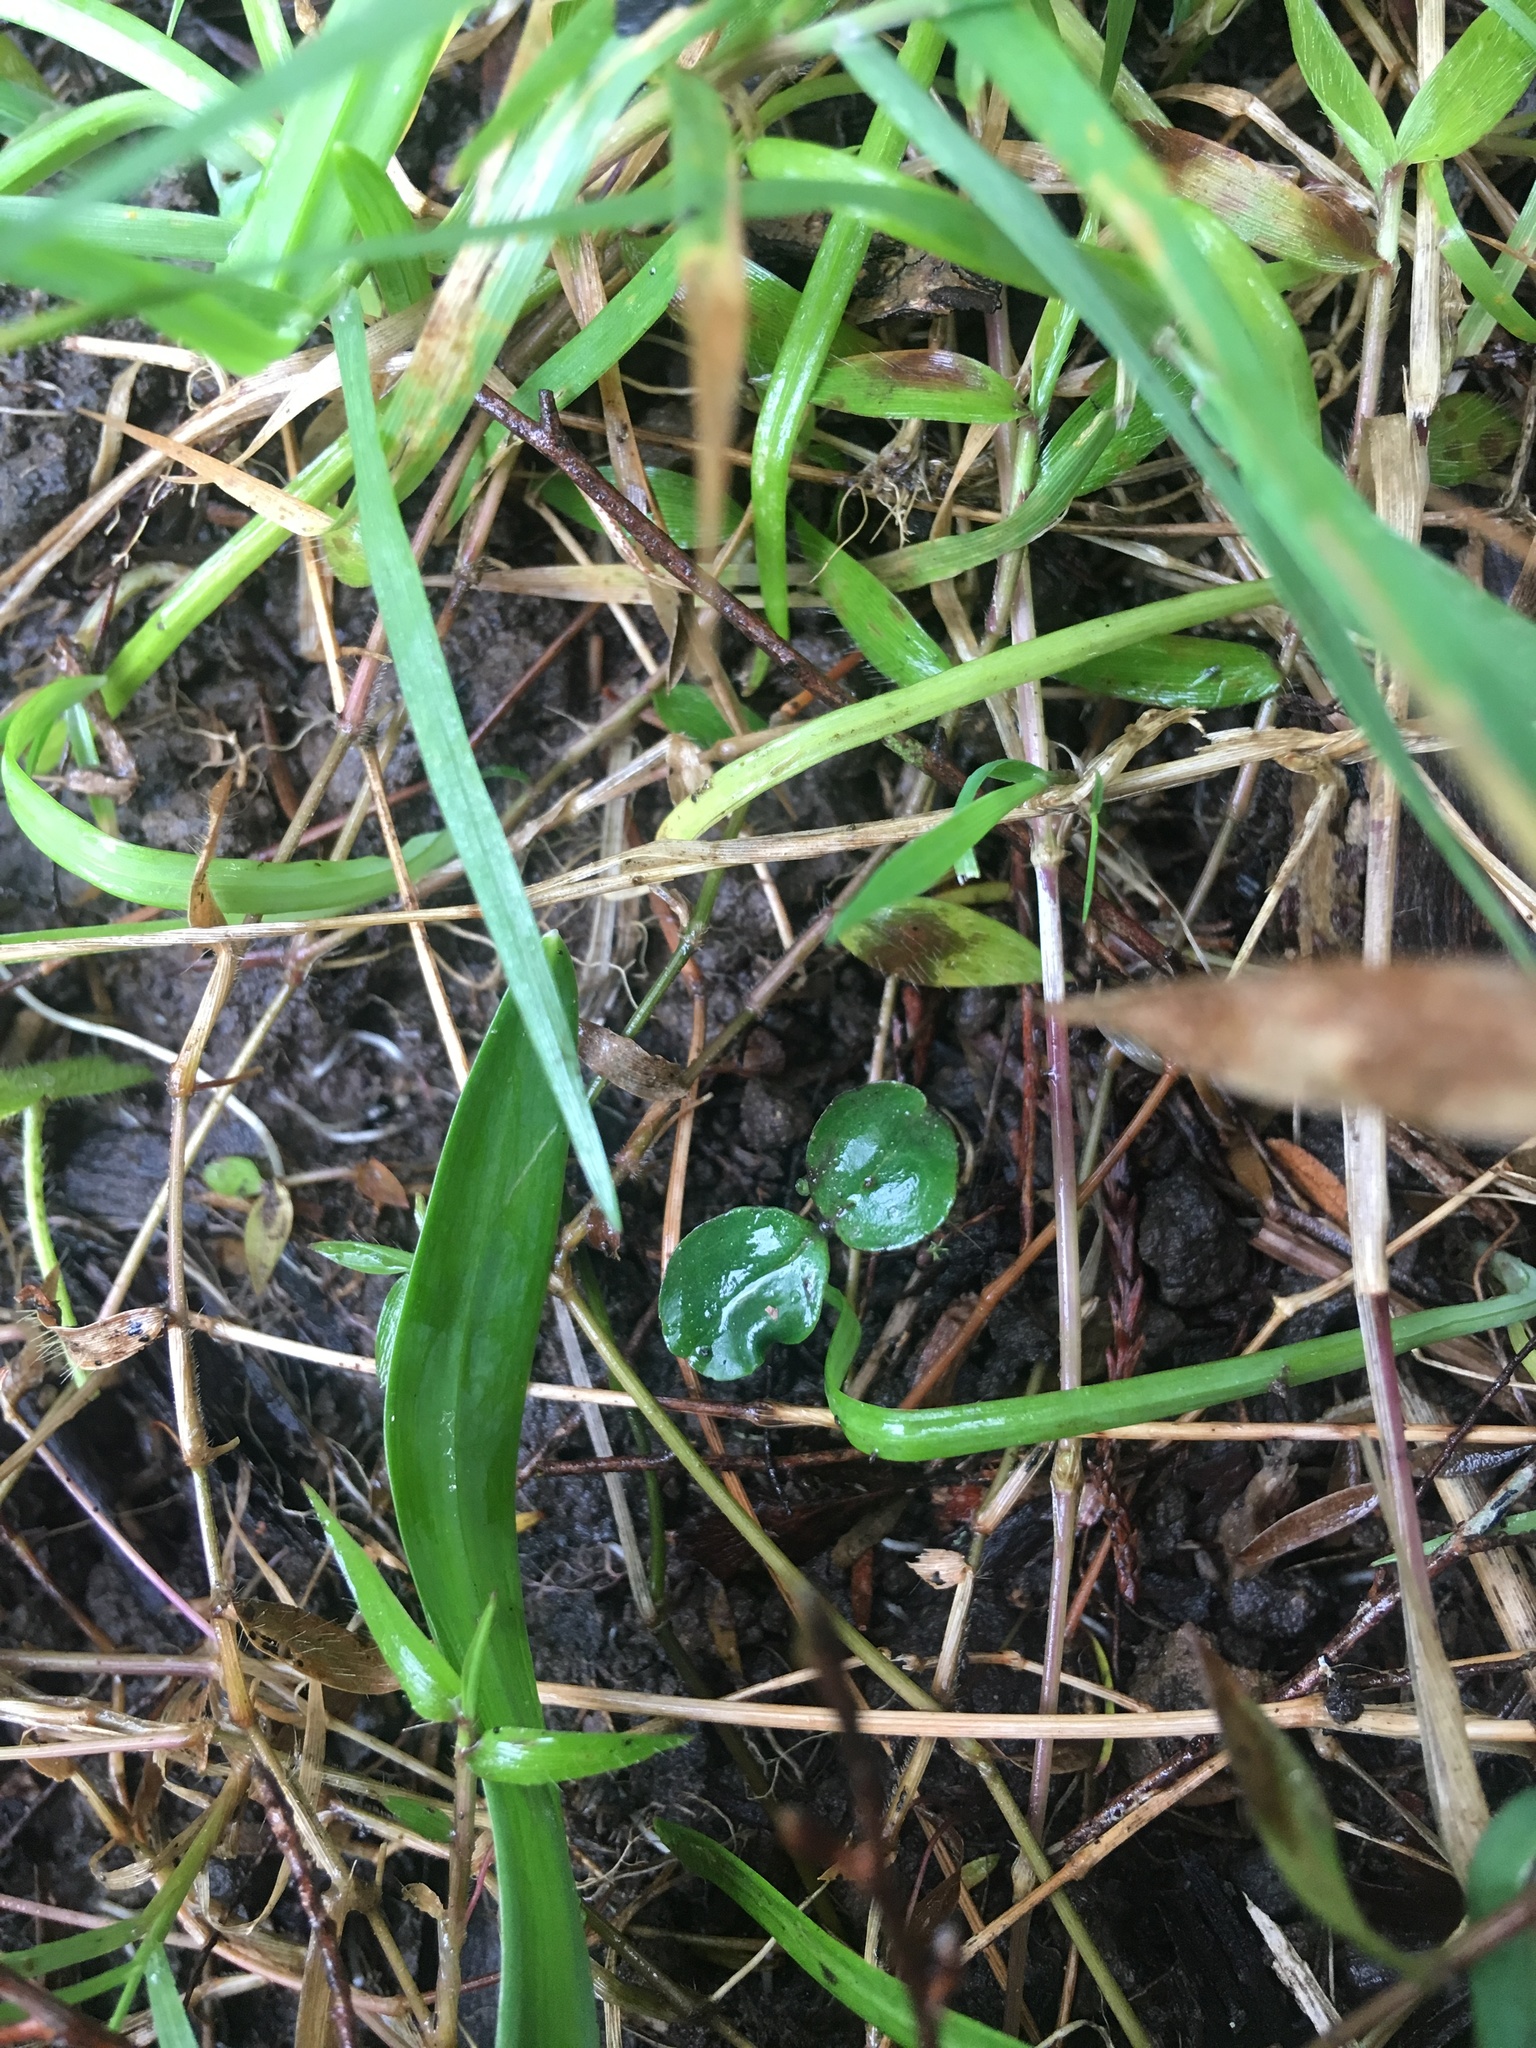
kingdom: Plantae
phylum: Tracheophyta
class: Magnoliopsida
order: Lamiales
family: Oleaceae
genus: Ligustrum
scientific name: Ligustrum sinense
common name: Chinese privet
